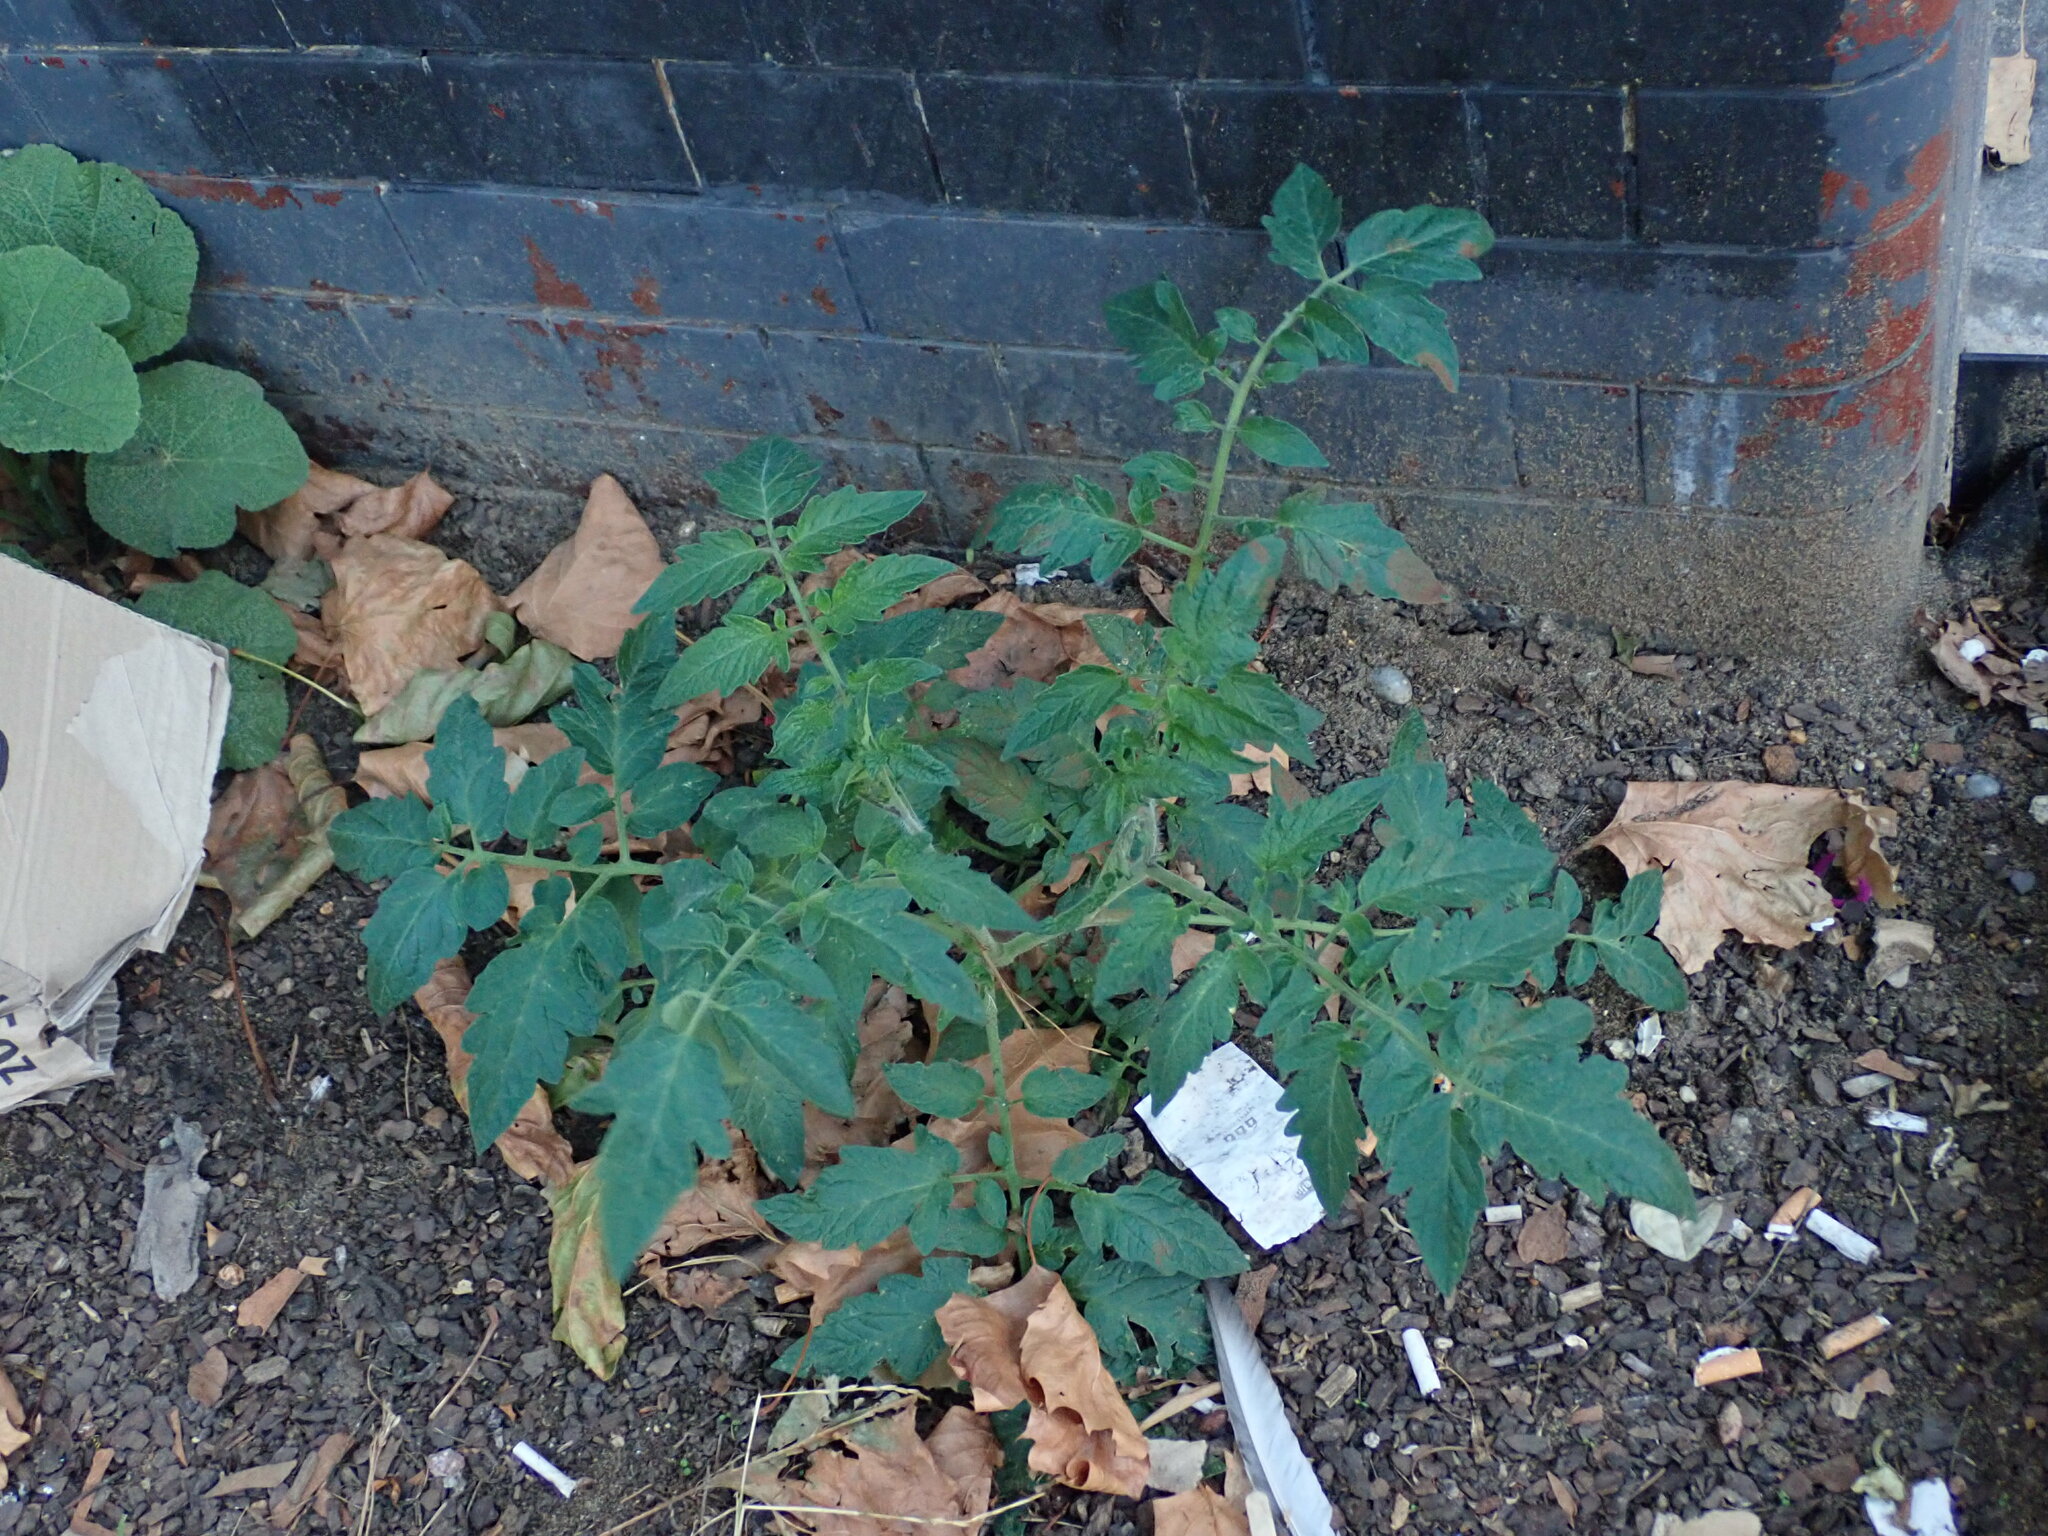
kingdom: Plantae
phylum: Tracheophyta
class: Magnoliopsida
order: Solanales
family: Solanaceae
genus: Solanum
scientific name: Solanum lycopersicum
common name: Garden tomato
